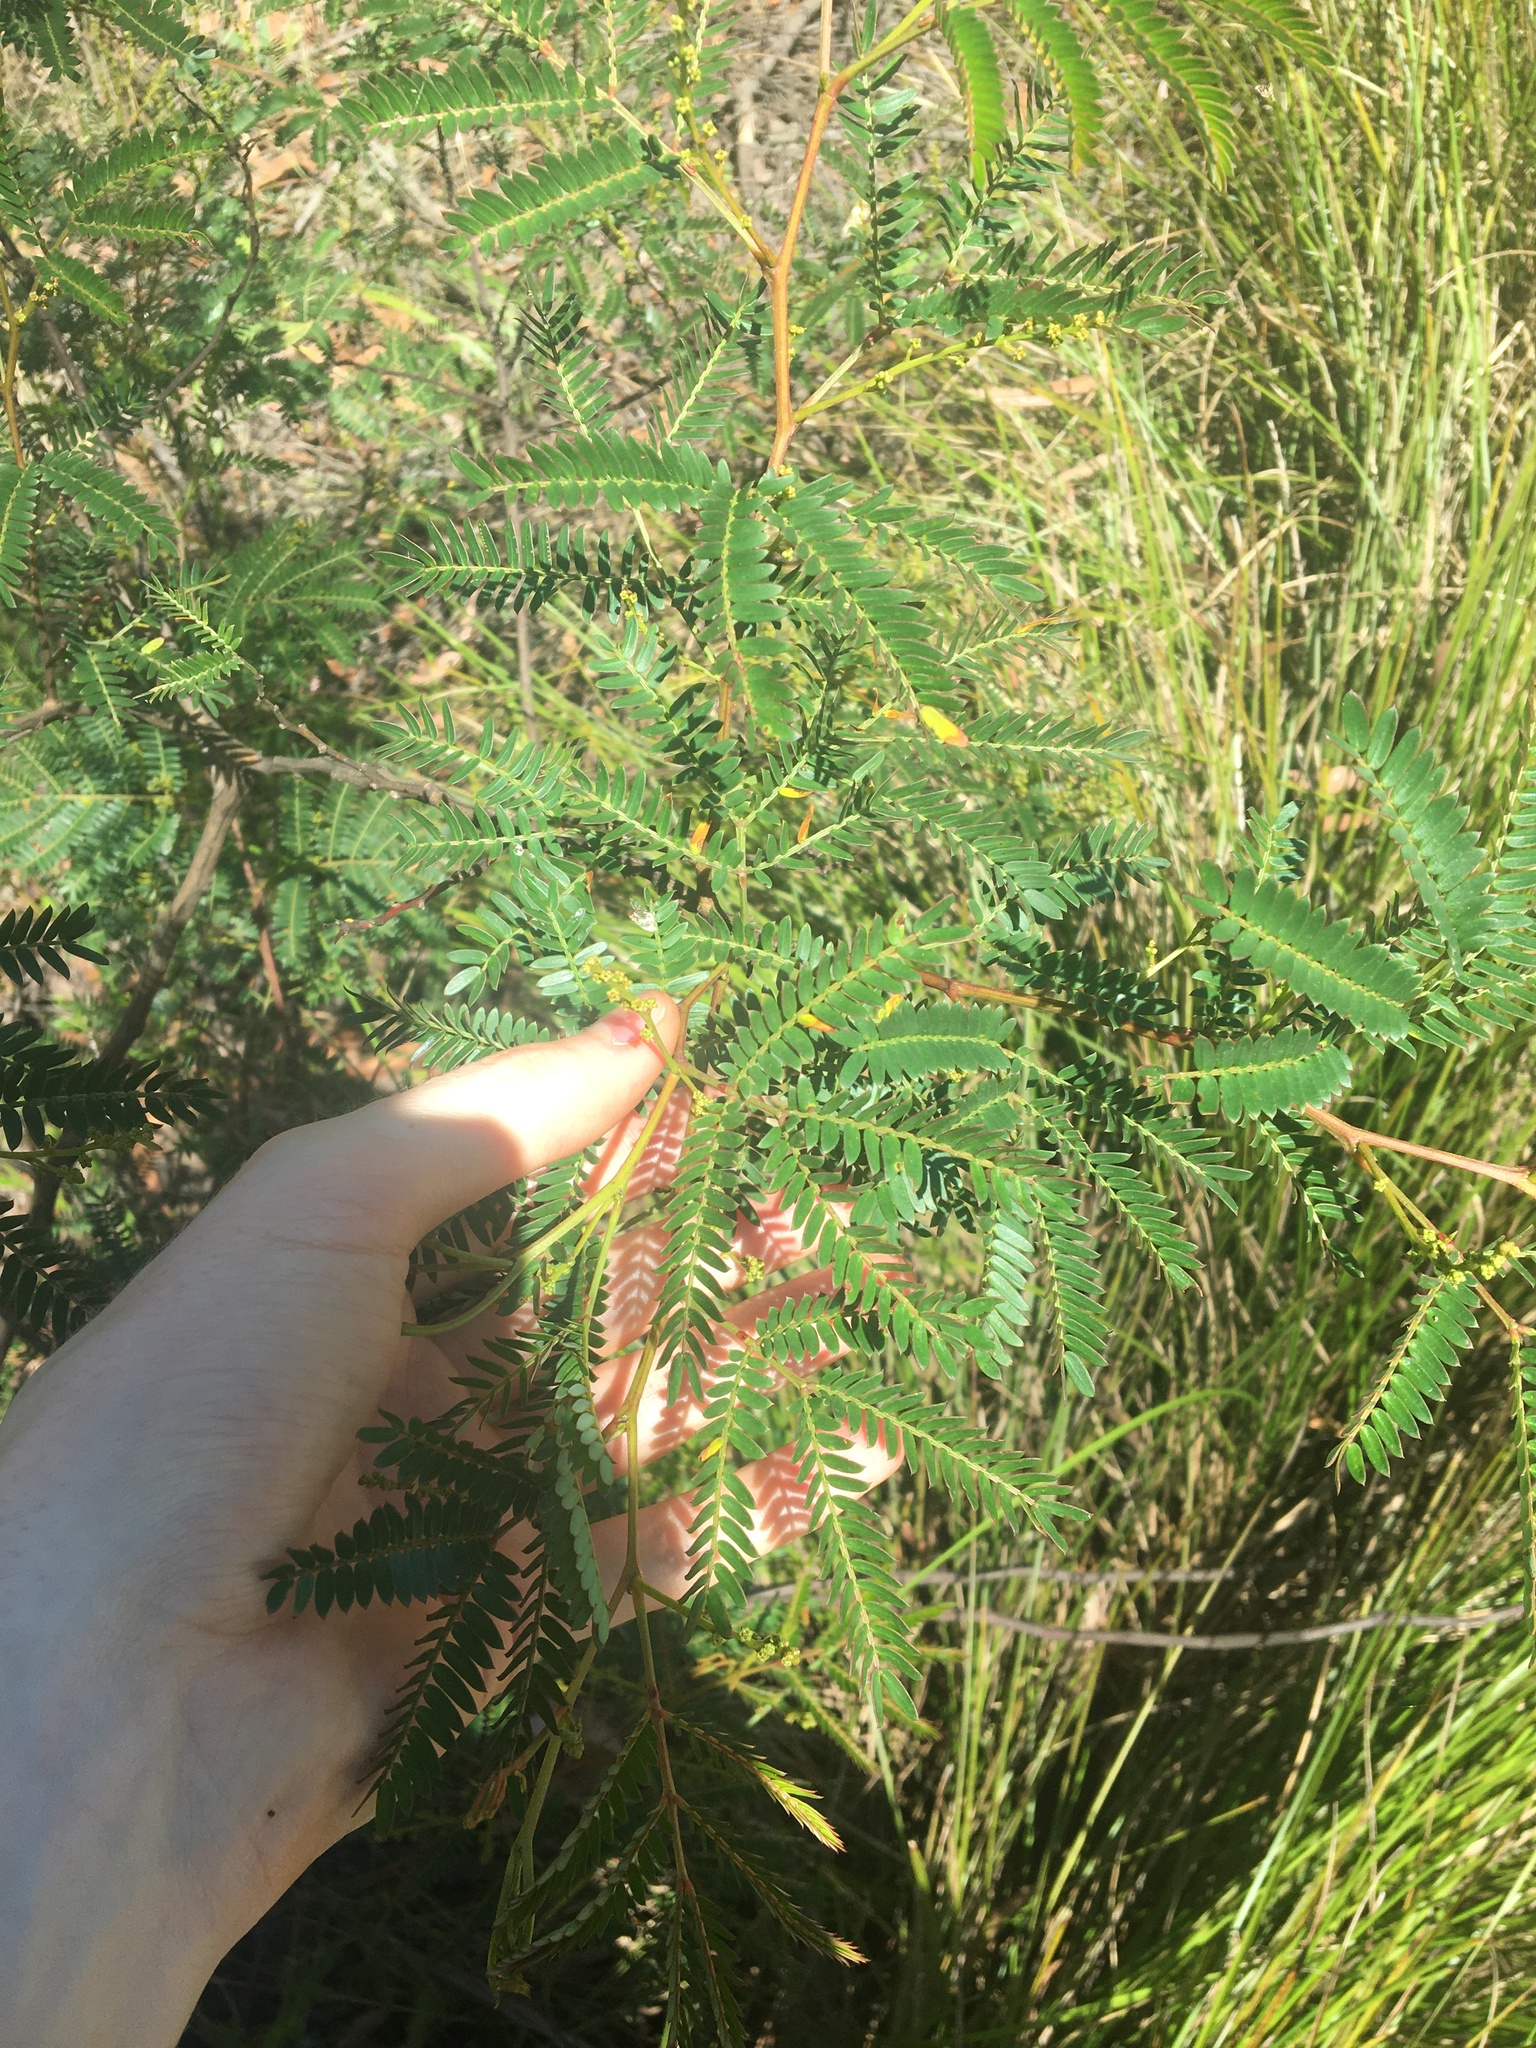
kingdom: Plantae
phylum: Tracheophyta
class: Magnoliopsida
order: Fabales
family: Fabaceae
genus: Acacia
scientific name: Acacia terminalis
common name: Cedar wattle
